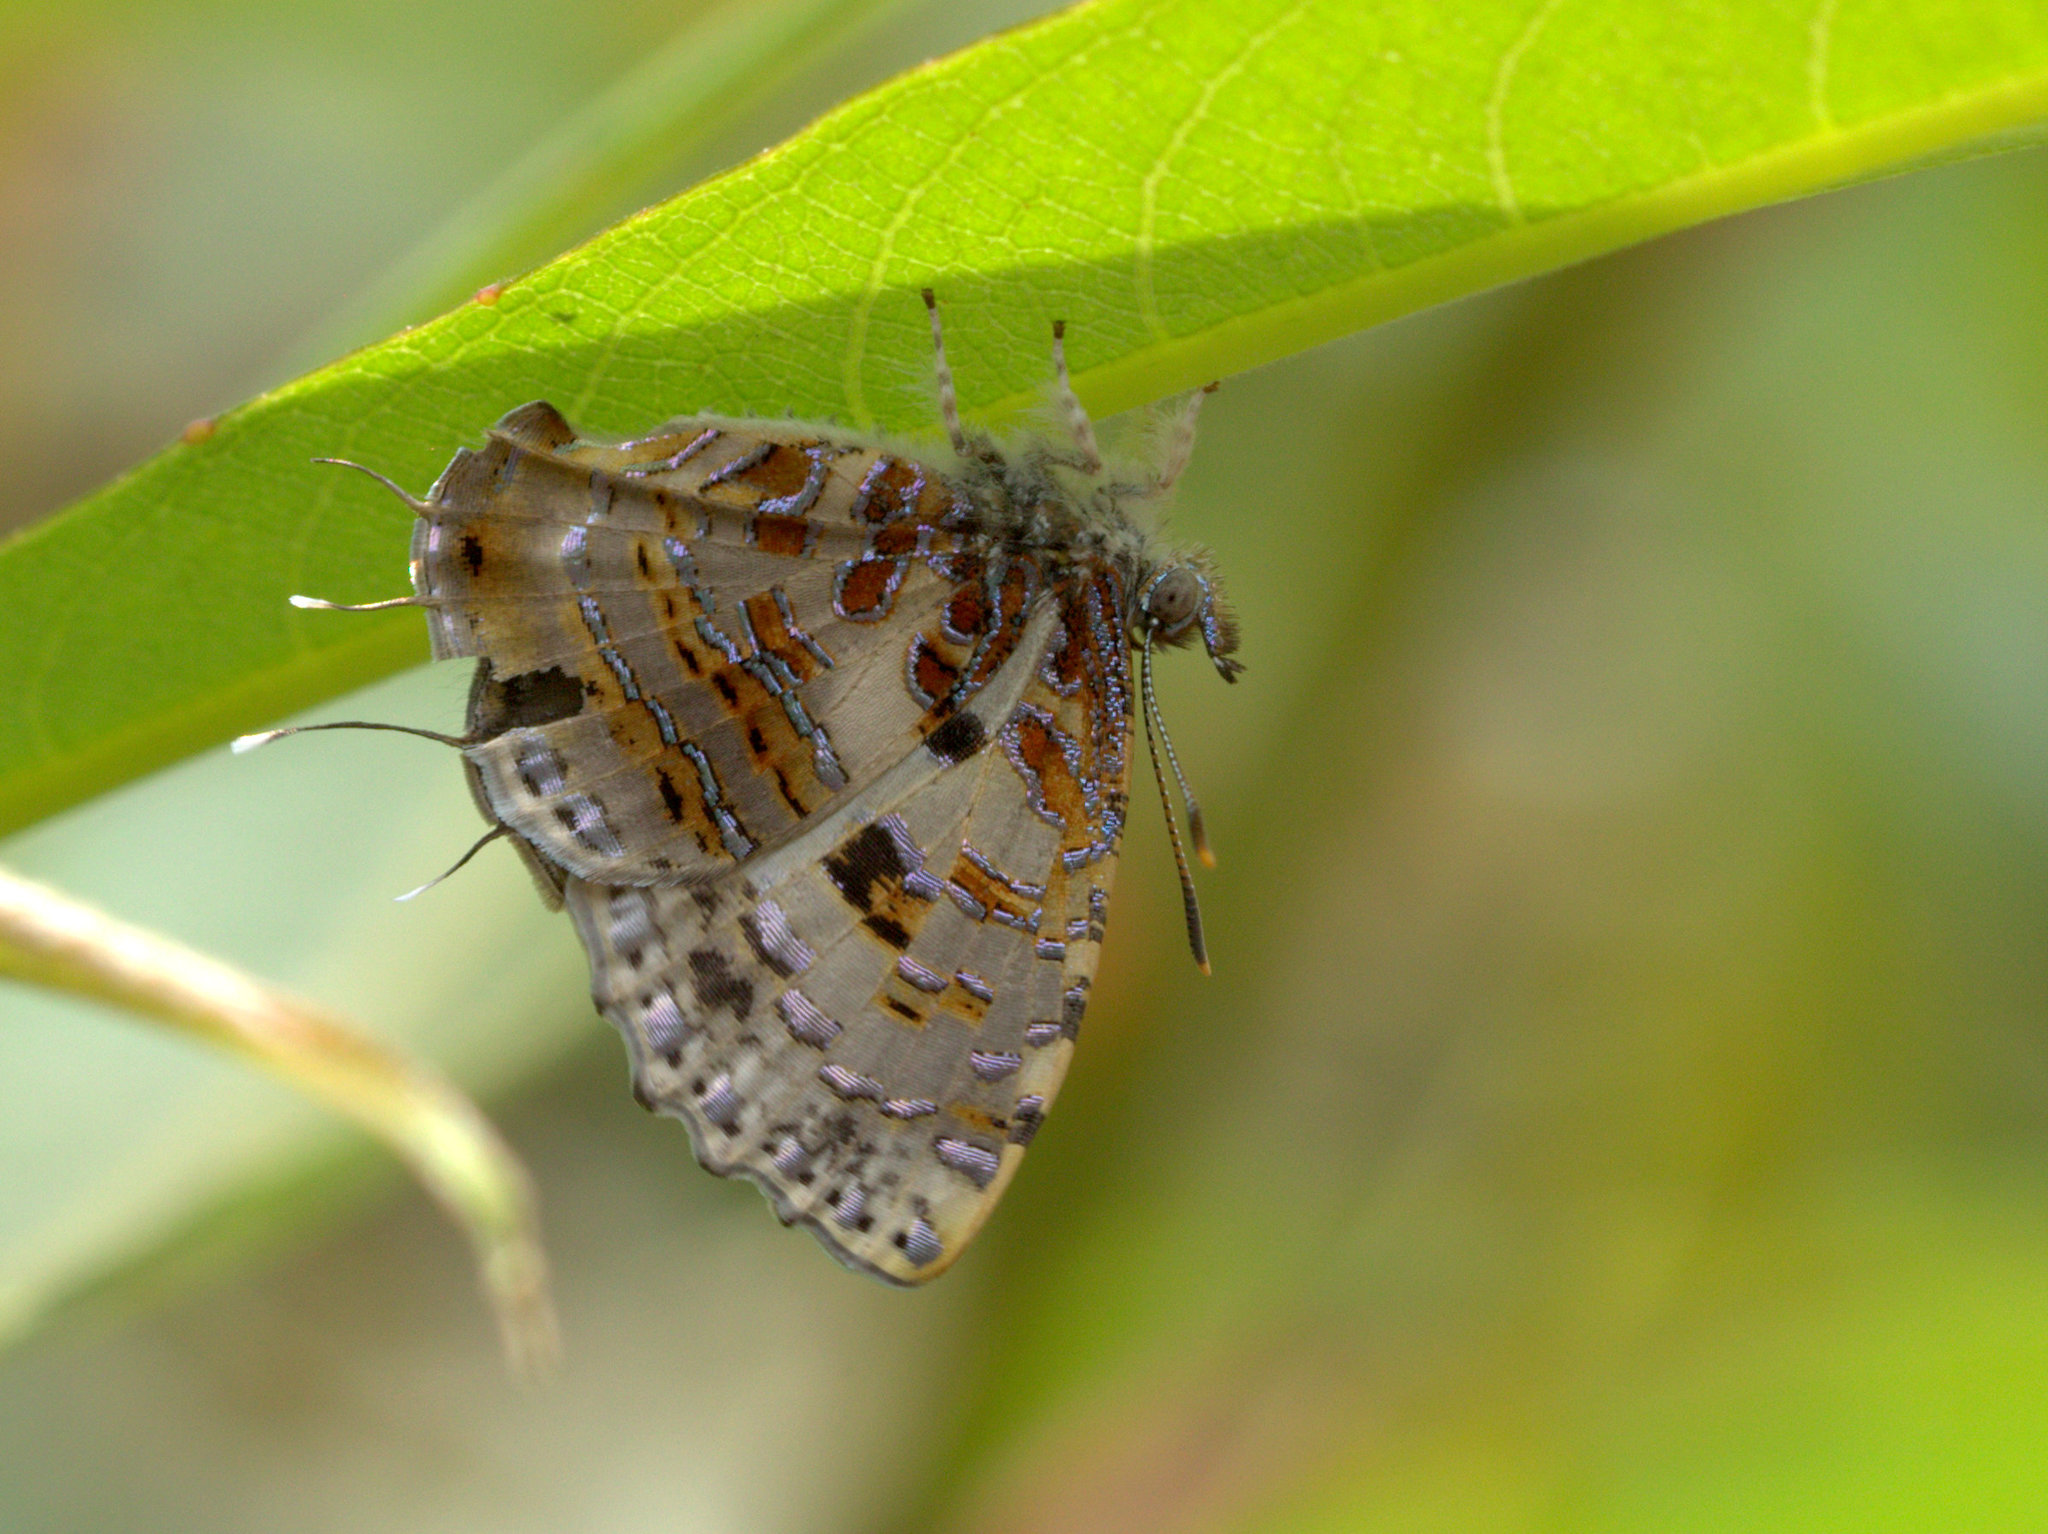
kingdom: Animalia
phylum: Arthropoda
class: Insecta
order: Lepidoptera
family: Lycaenidae
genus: Catapaecilma
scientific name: Catapaecilma major
